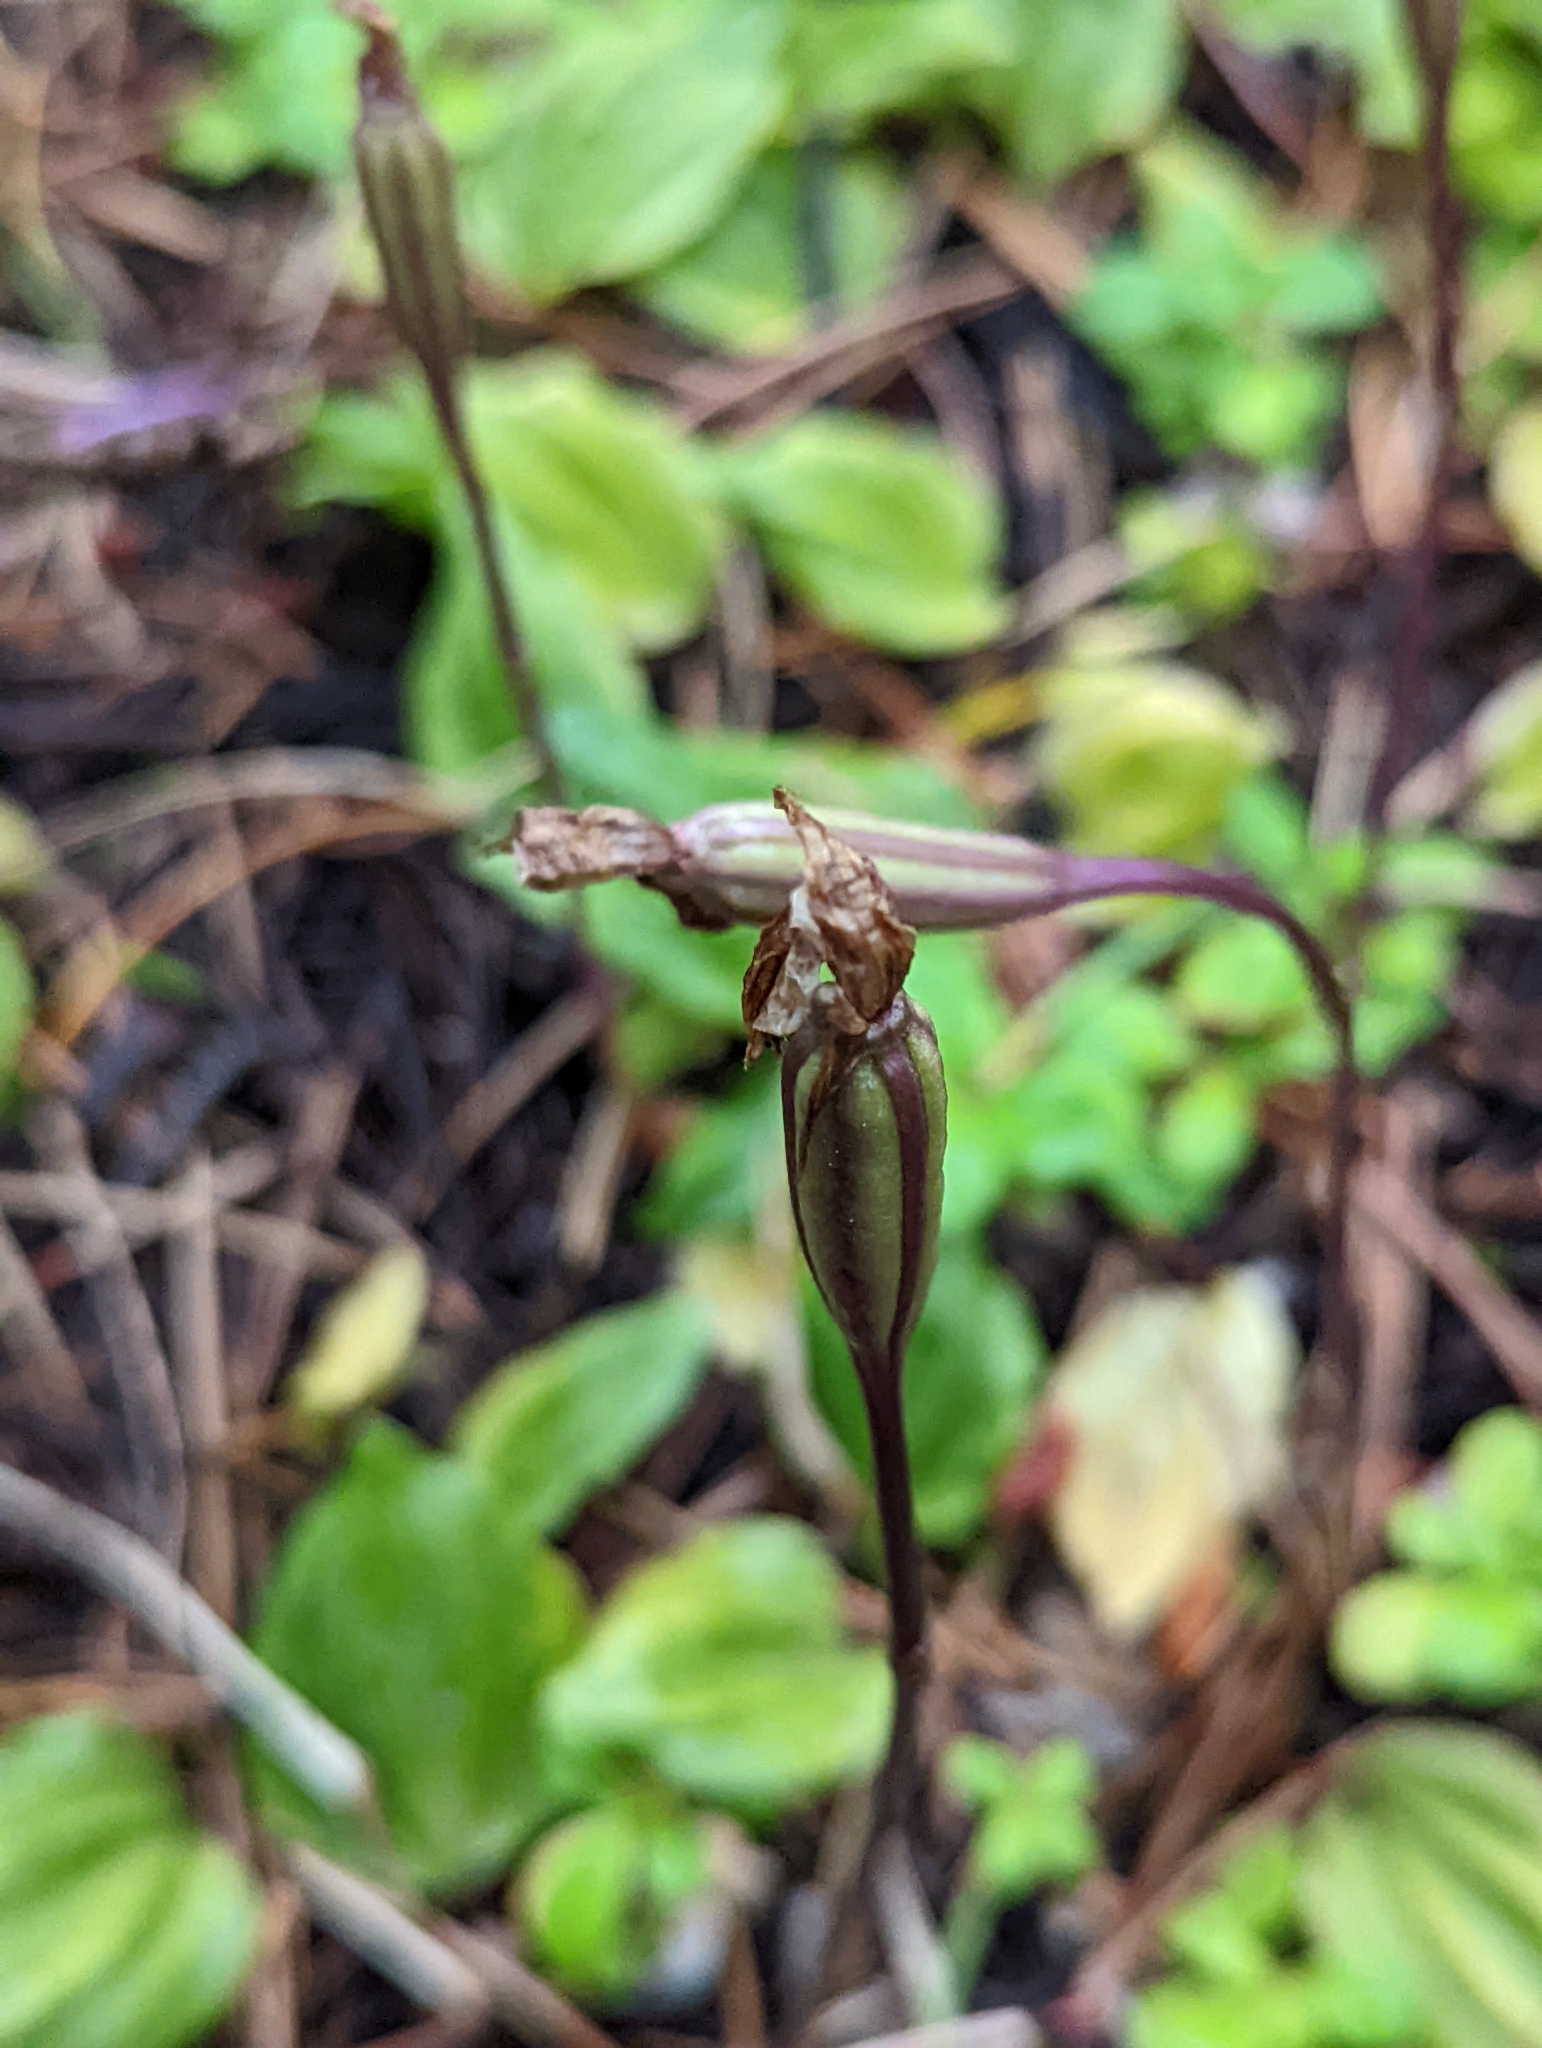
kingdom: Plantae
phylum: Tracheophyta
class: Liliopsida
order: Asparagales
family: Orchidaceae
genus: Calypso
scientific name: Calypso bulbosa
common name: Calypso
